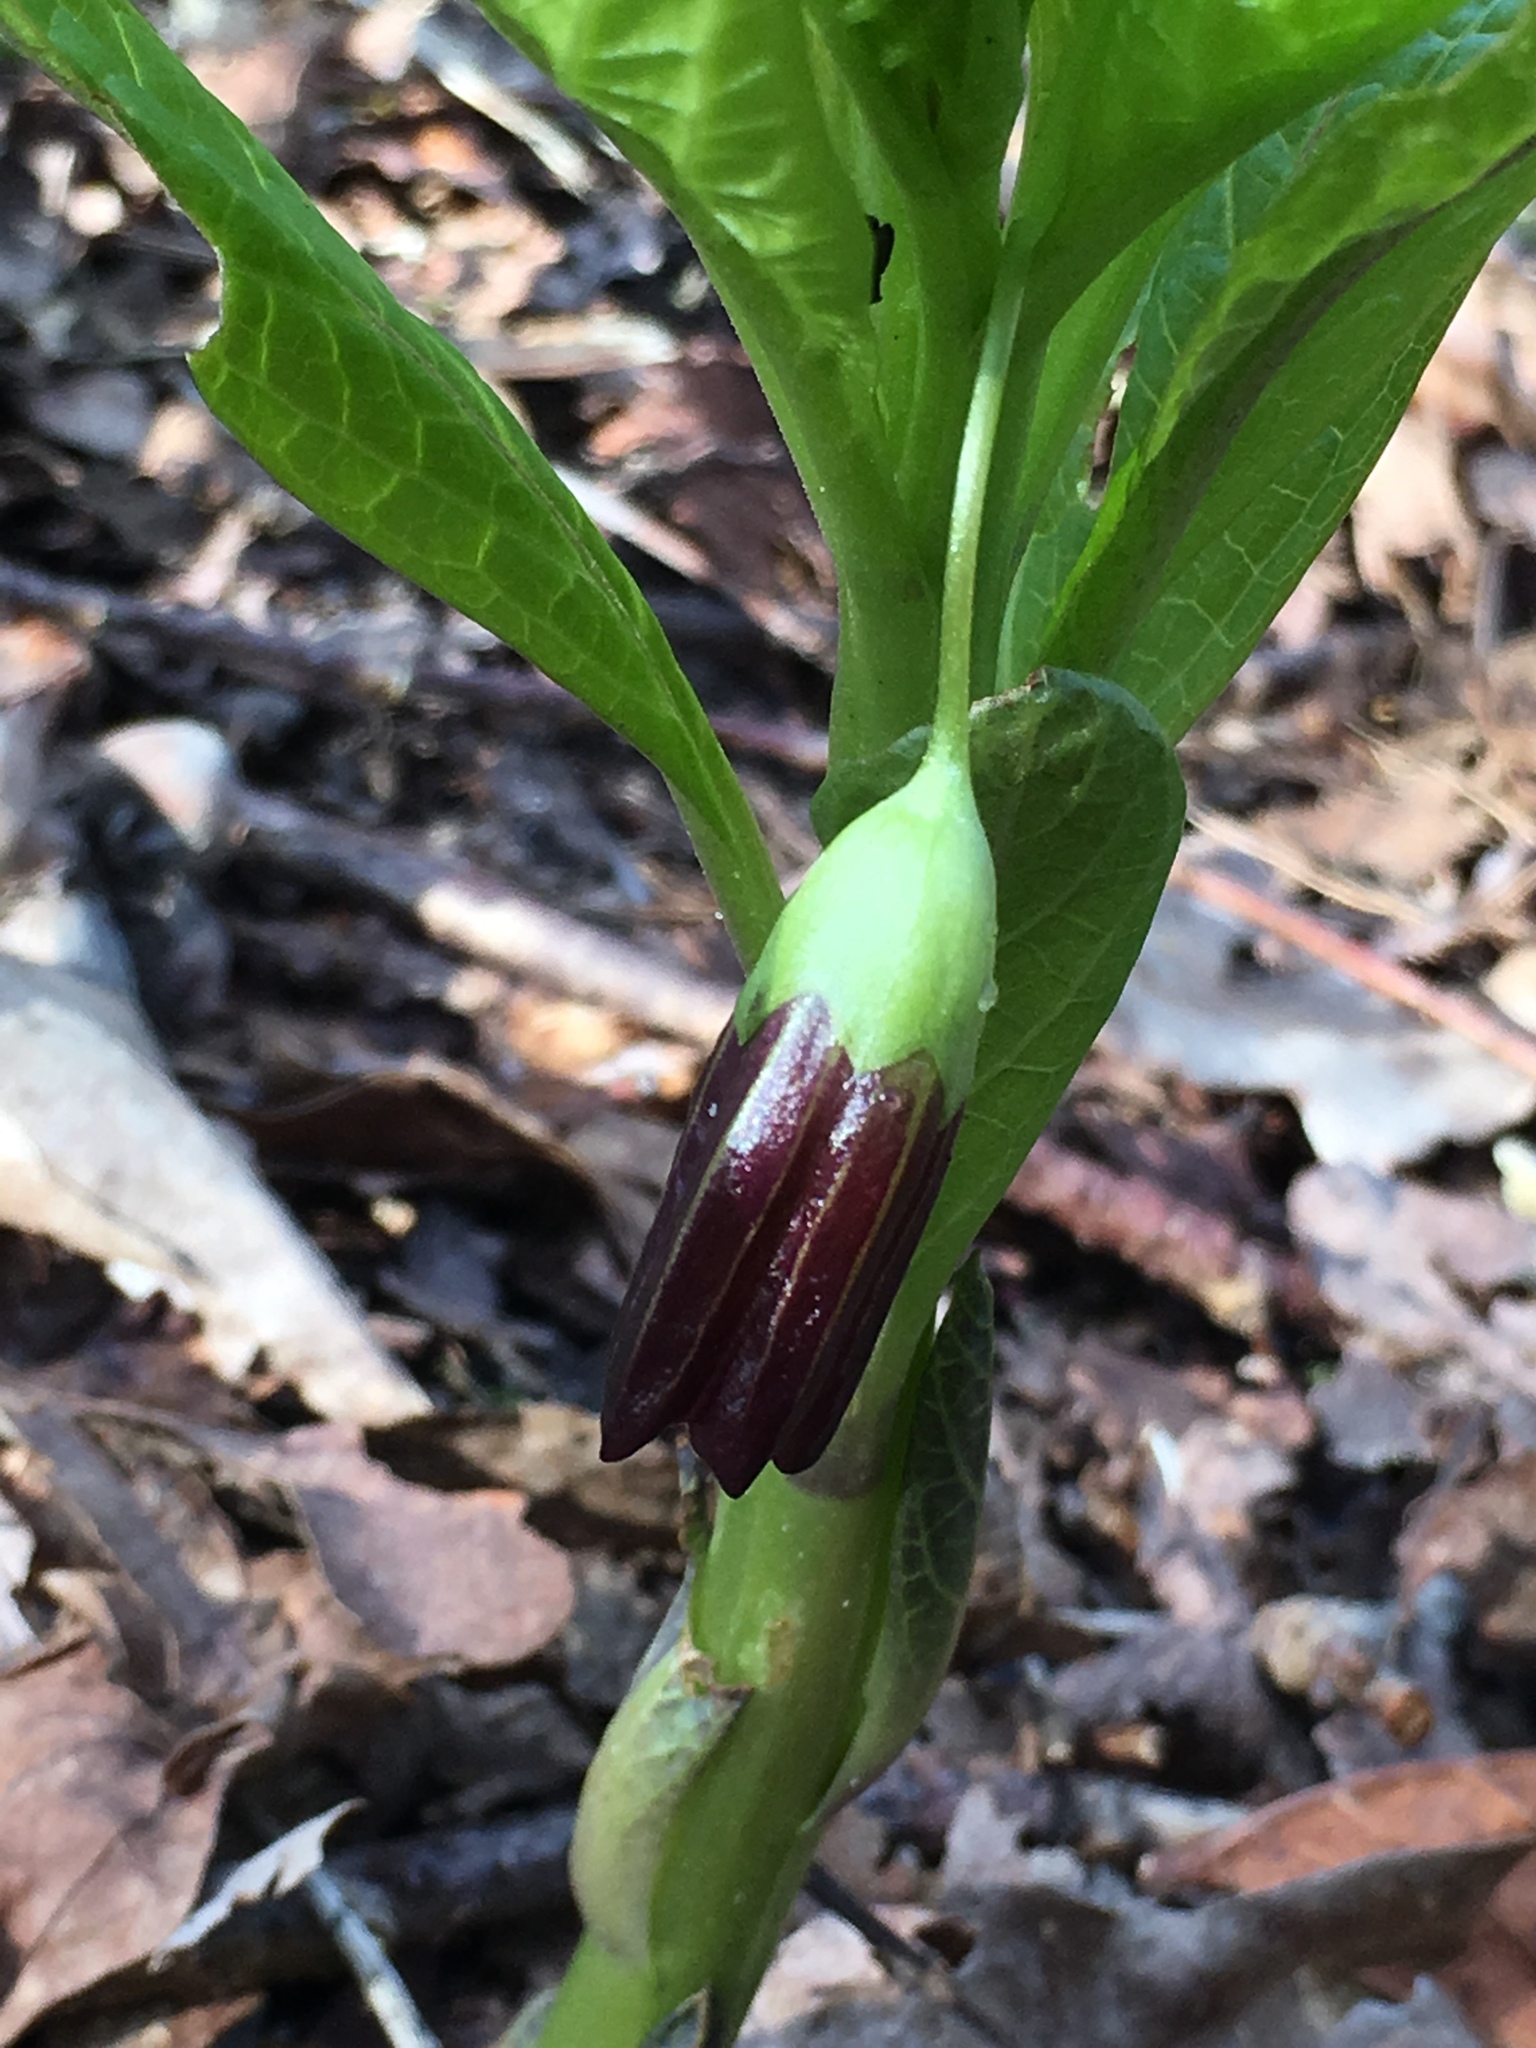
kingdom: Plantae
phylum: Tracheophyta
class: Magnoliopsida
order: Solanales
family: Solanaceae
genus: Scopolia
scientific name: Scopolia carniolica
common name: Scopolia
